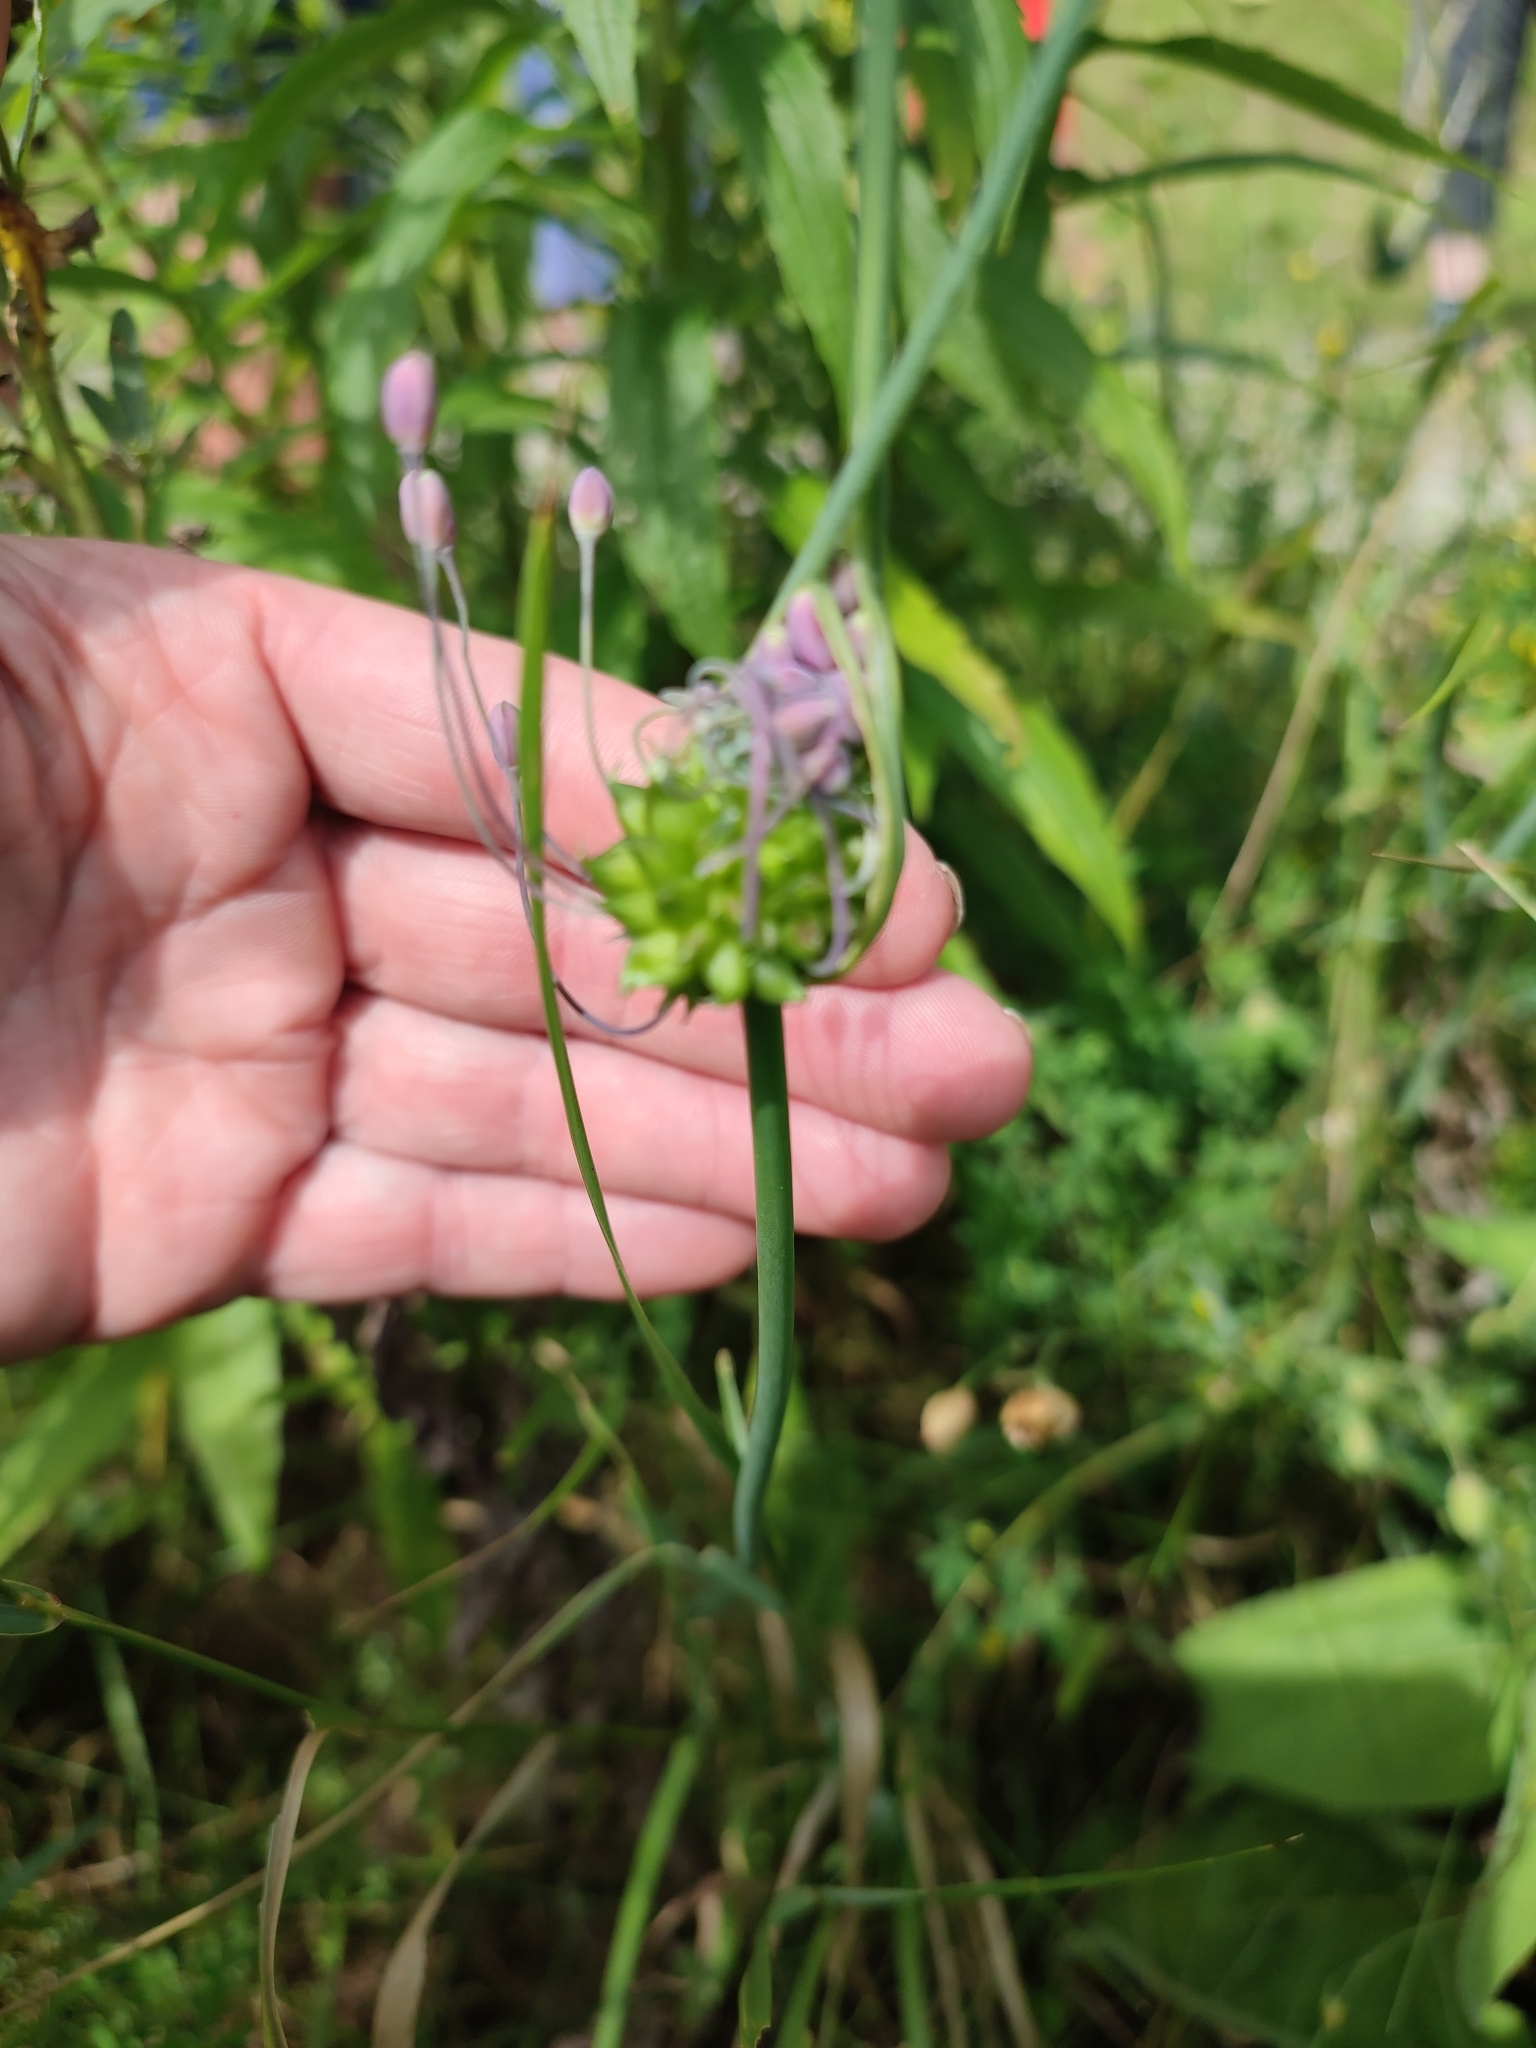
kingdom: Plantae
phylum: Tracheophyta
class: Liliopsida
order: Asparagales
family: Amaryllidaceae
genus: Allium
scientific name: Allium carinatum
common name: Keeled garlic
